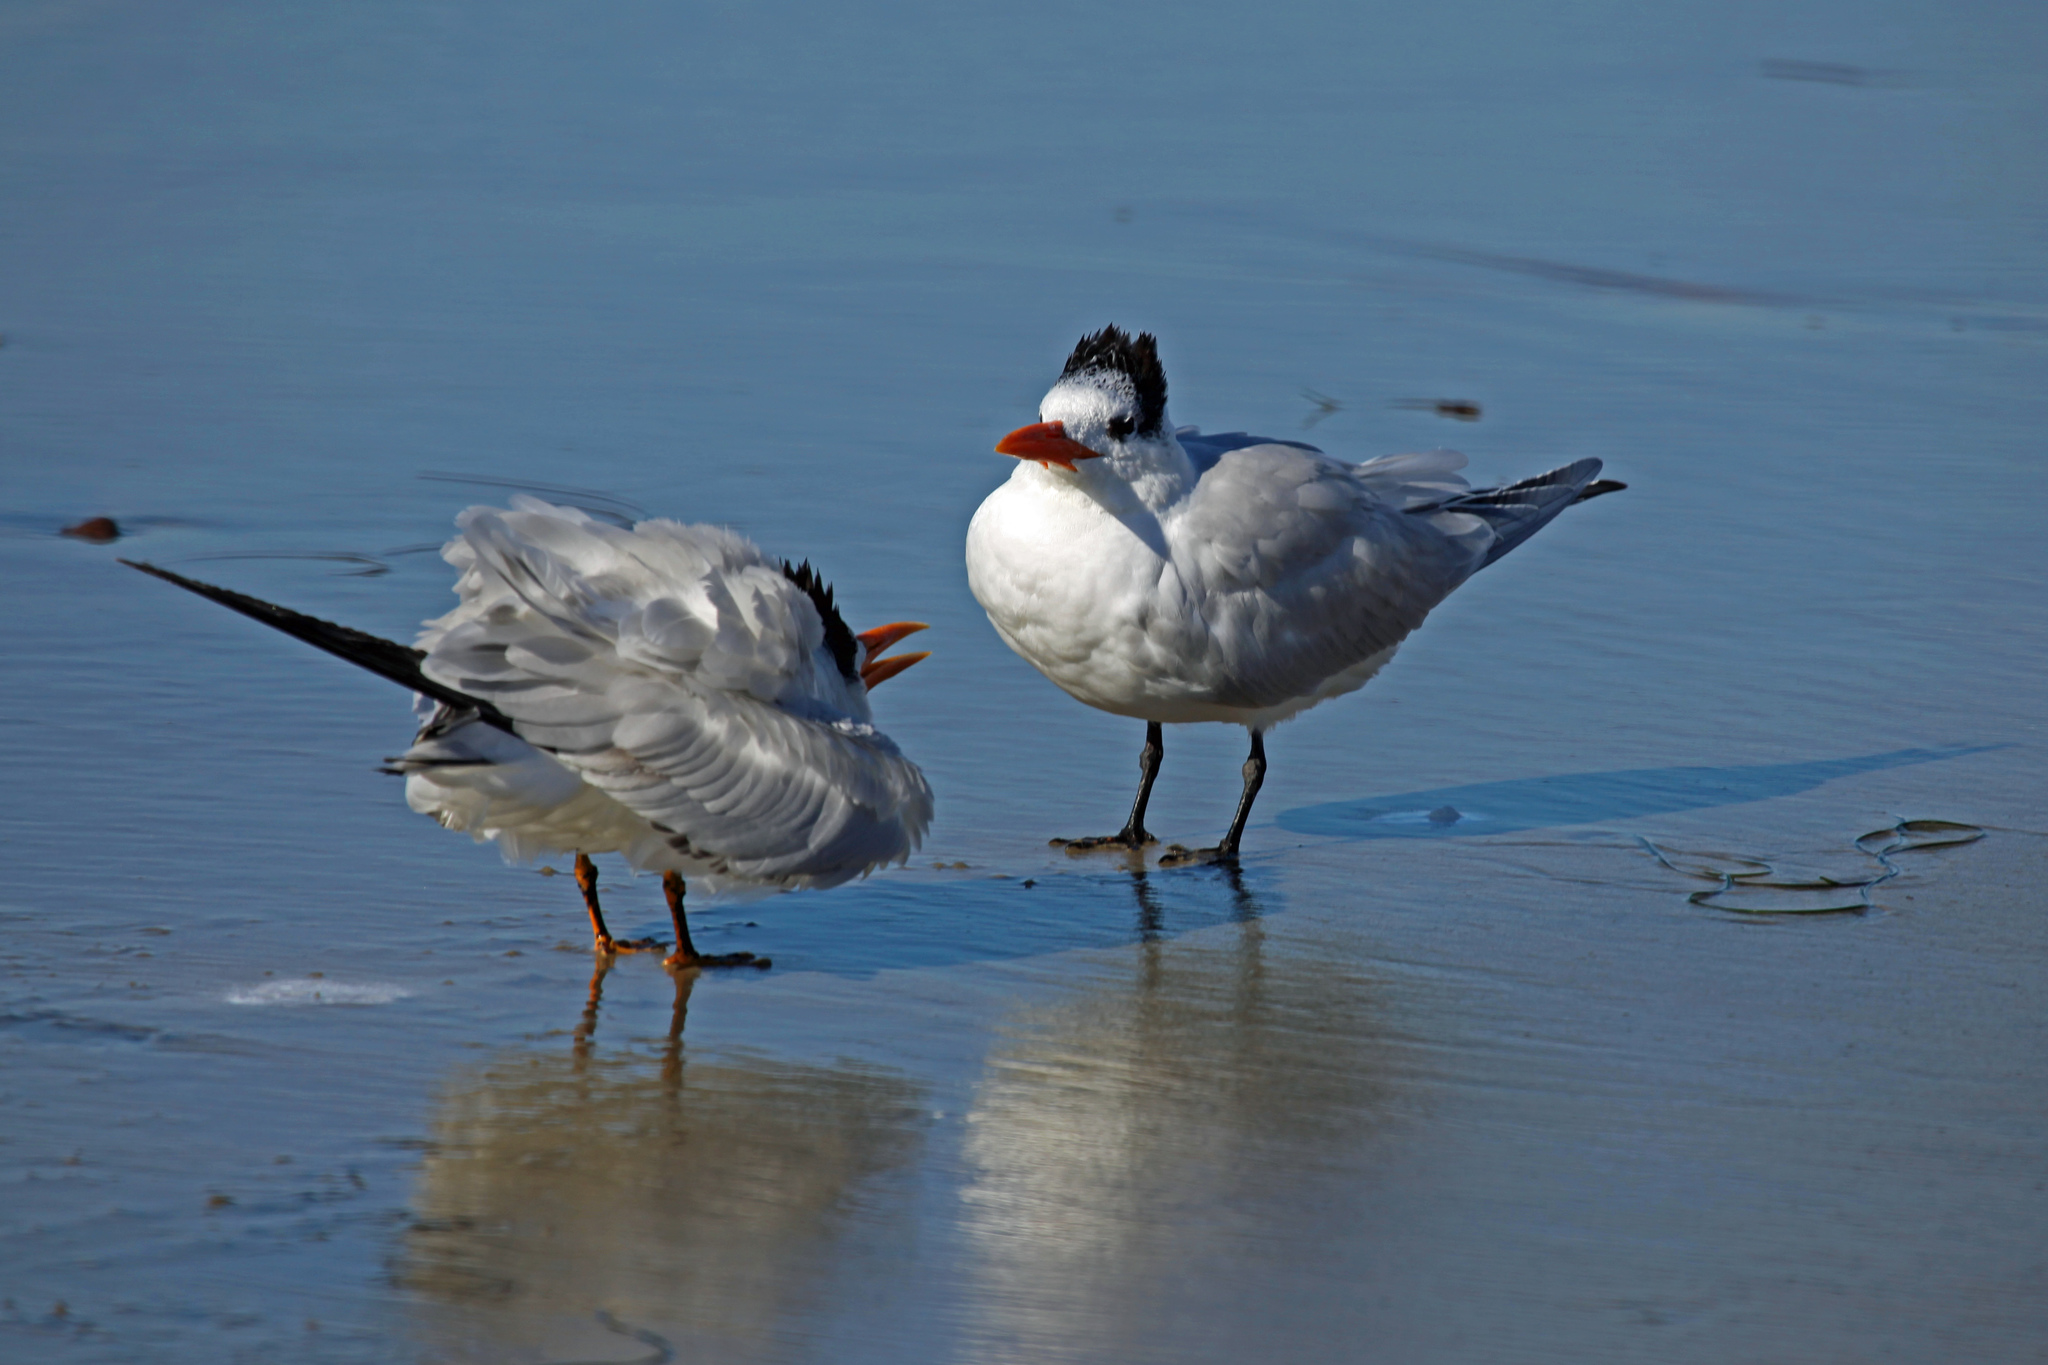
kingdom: Animalia
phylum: Chordata
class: Aves
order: Charadriiformes
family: Laridae
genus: Thalasseus
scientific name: Thalasseus elegans
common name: Elegant tern
